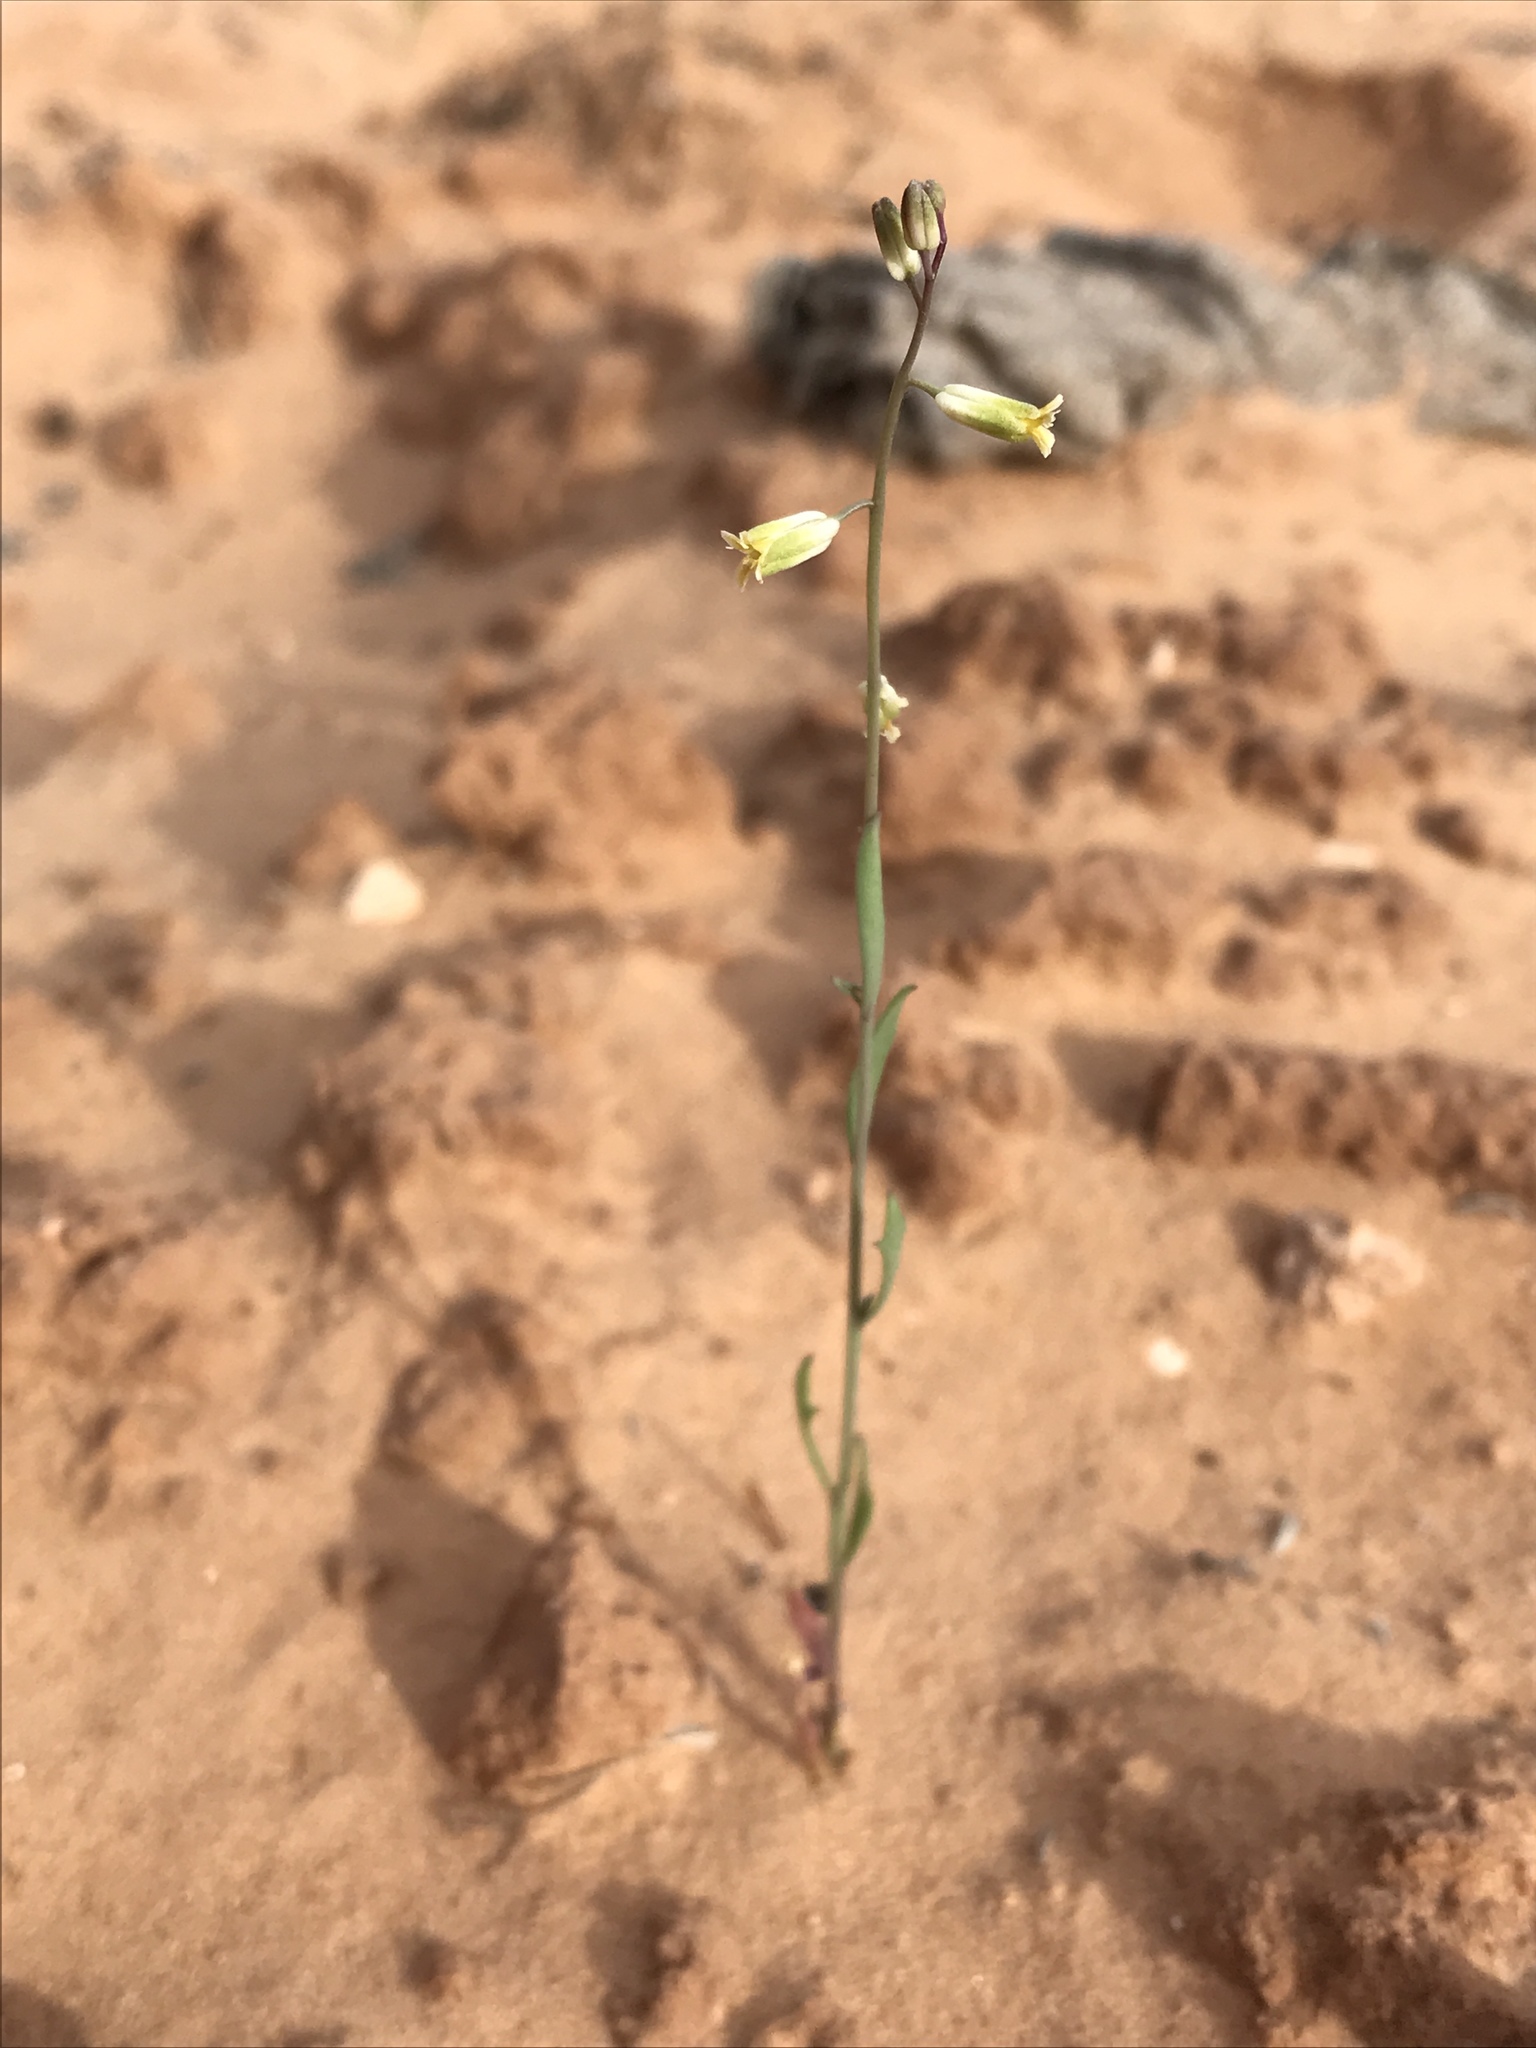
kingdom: Plantae
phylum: Tracheophyta
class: Magnoliopsida
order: Brassicales
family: Brassicaceae
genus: Streptanthus
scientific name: Streptanthus longirostris
